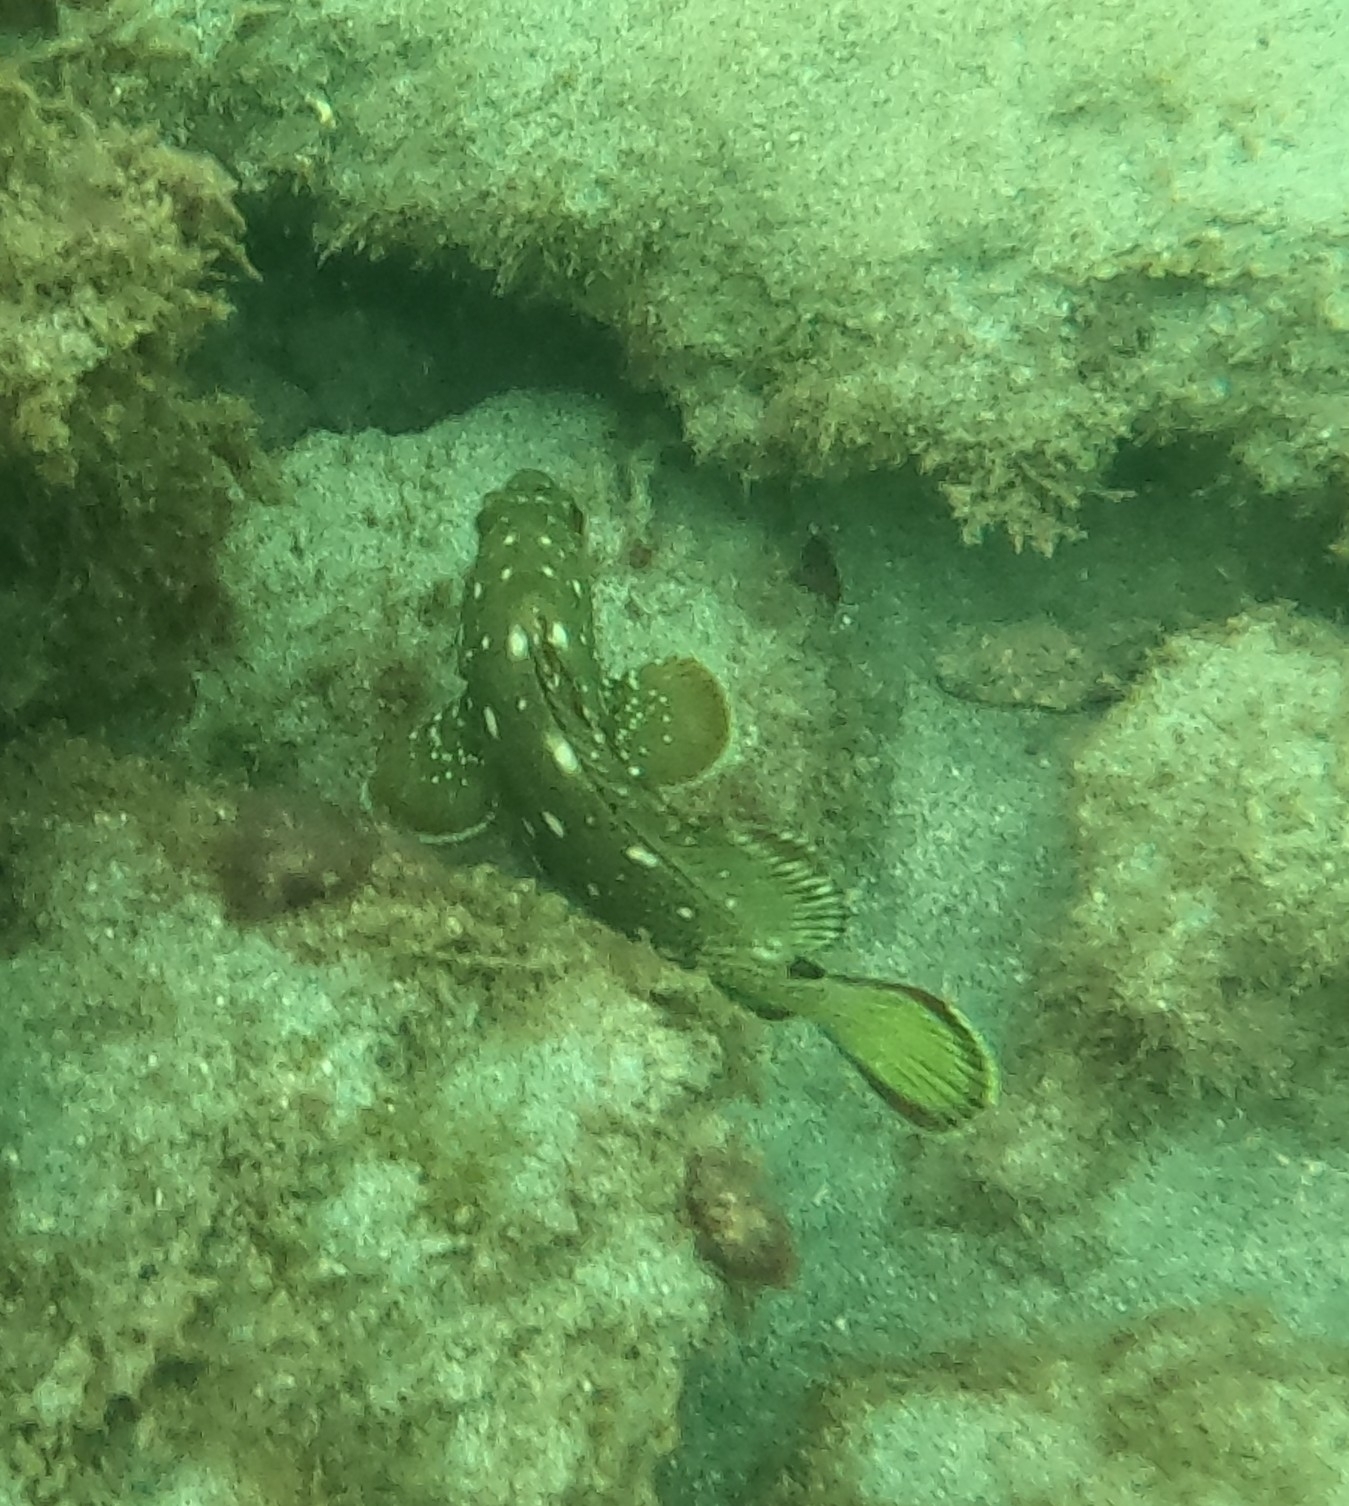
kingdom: Animalia
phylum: Chordata
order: Perciformes
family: Serranidae
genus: Epinephelus
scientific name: Epinephelus labriformis
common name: Flag cabrilla
